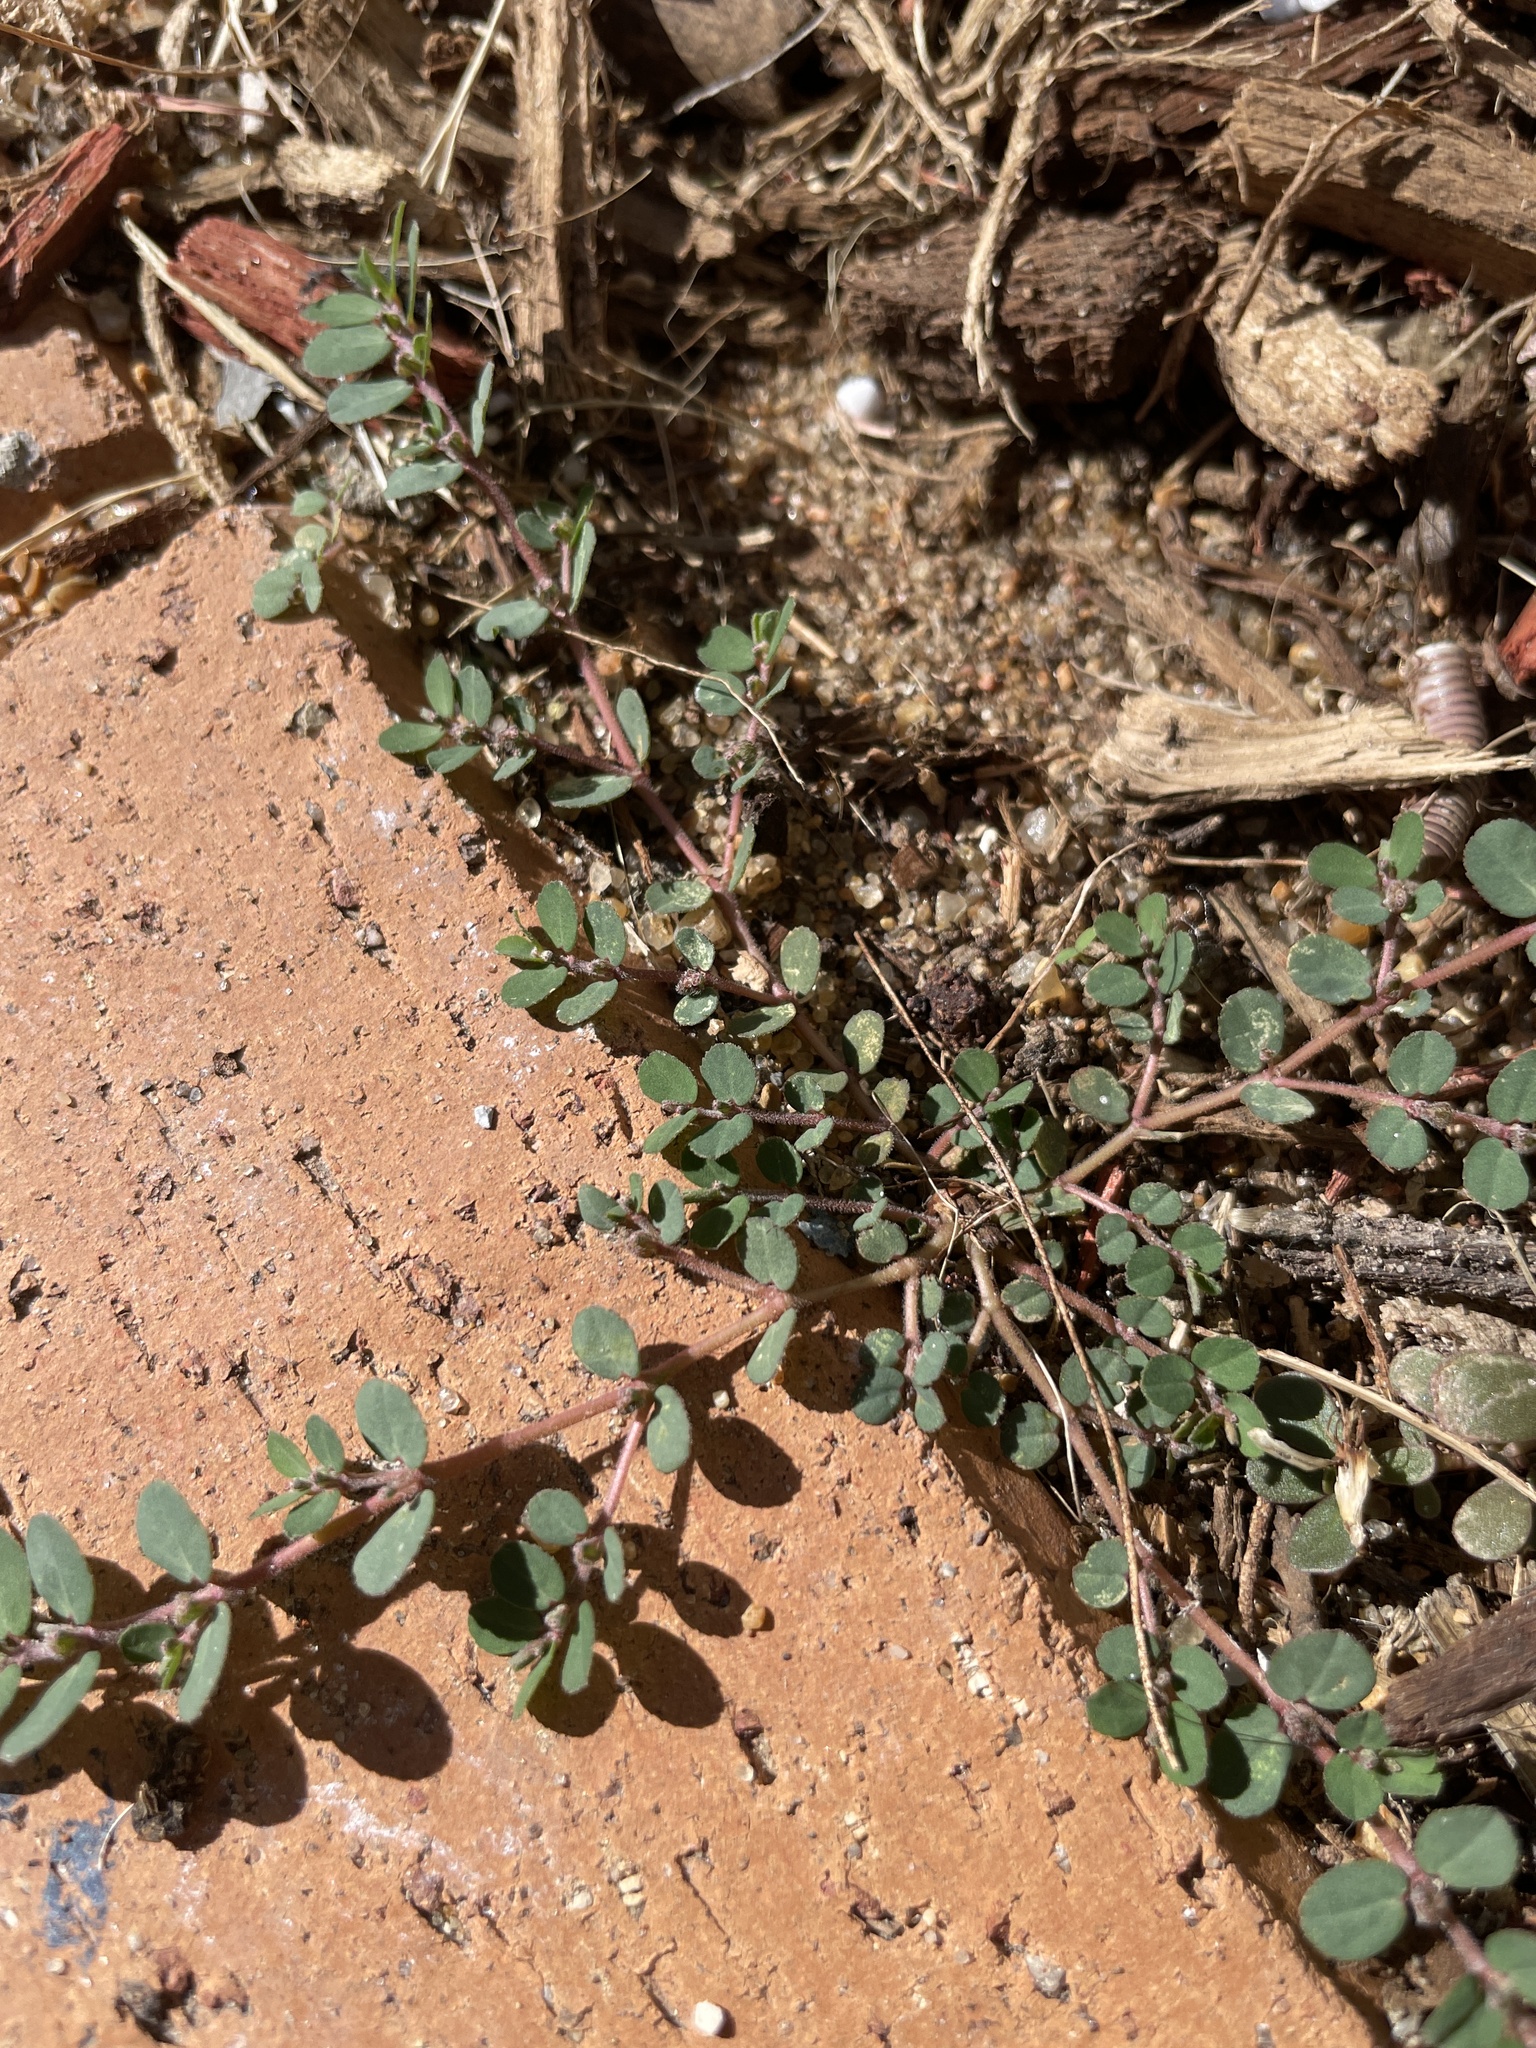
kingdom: Plantae
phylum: Tracheophyta
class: Magnoliopsida
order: Malpighiales
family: Euphorbiaceae
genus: Euphorbia
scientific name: Euphorbia prostrata
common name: Prostrate sandmat
